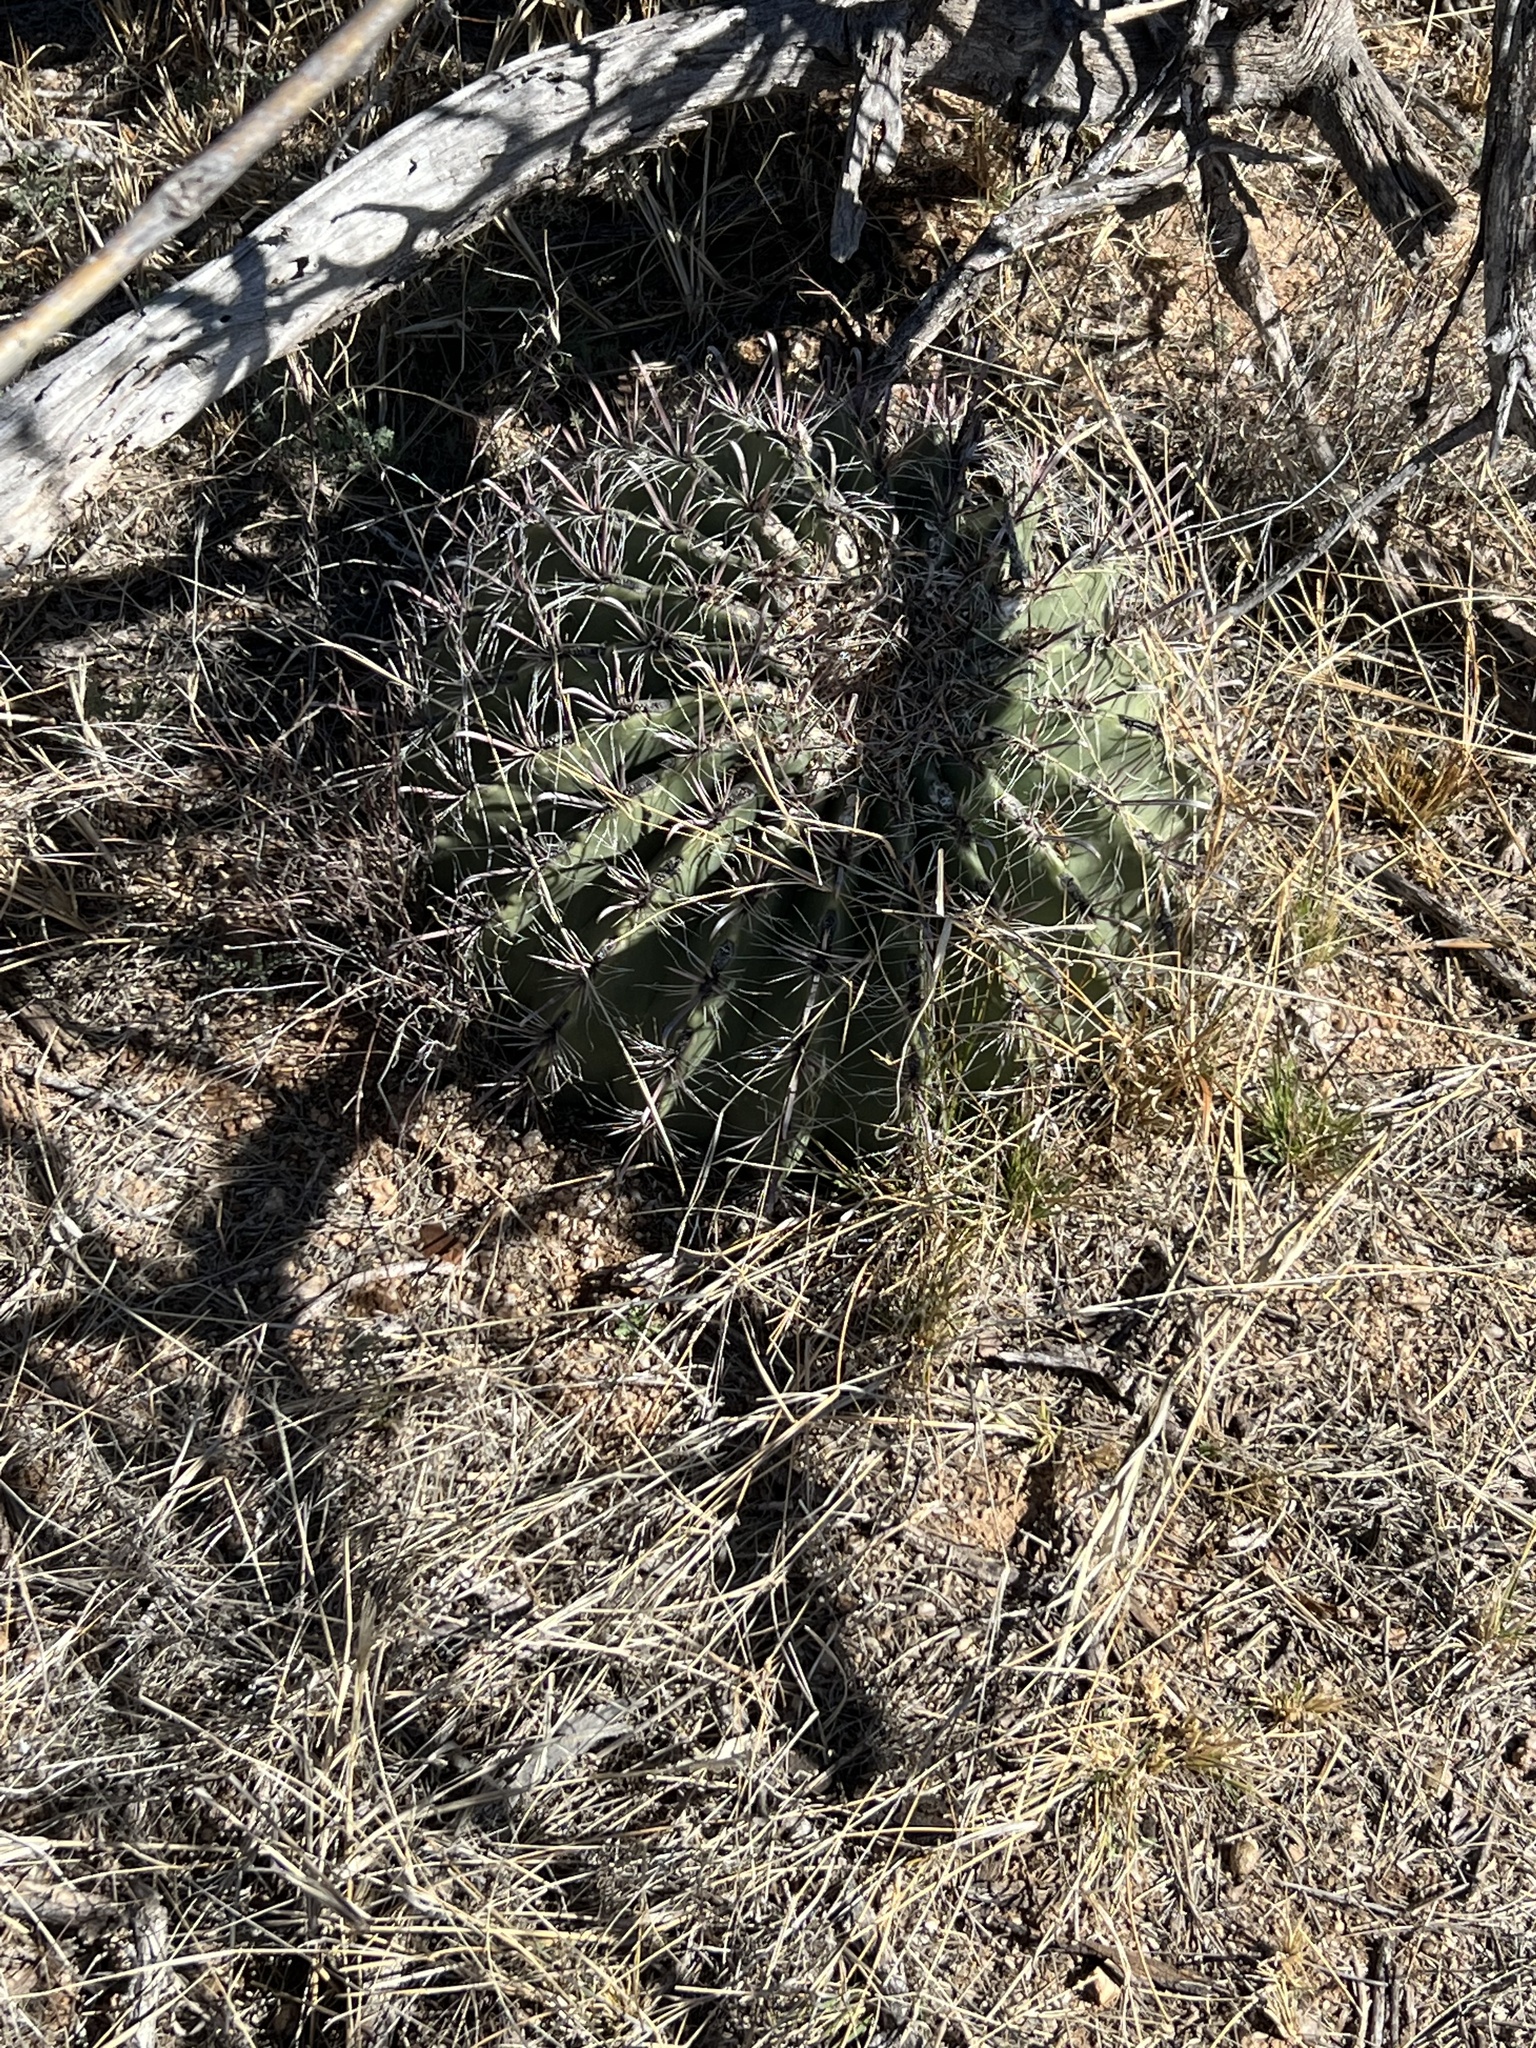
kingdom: Plantae
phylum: Tracheophyta
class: Magnoliopsida
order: Caryophyllales
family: Cactaceae
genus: Ferocactus
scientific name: Ferocactus wislizeni
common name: Candy barrel cactus
